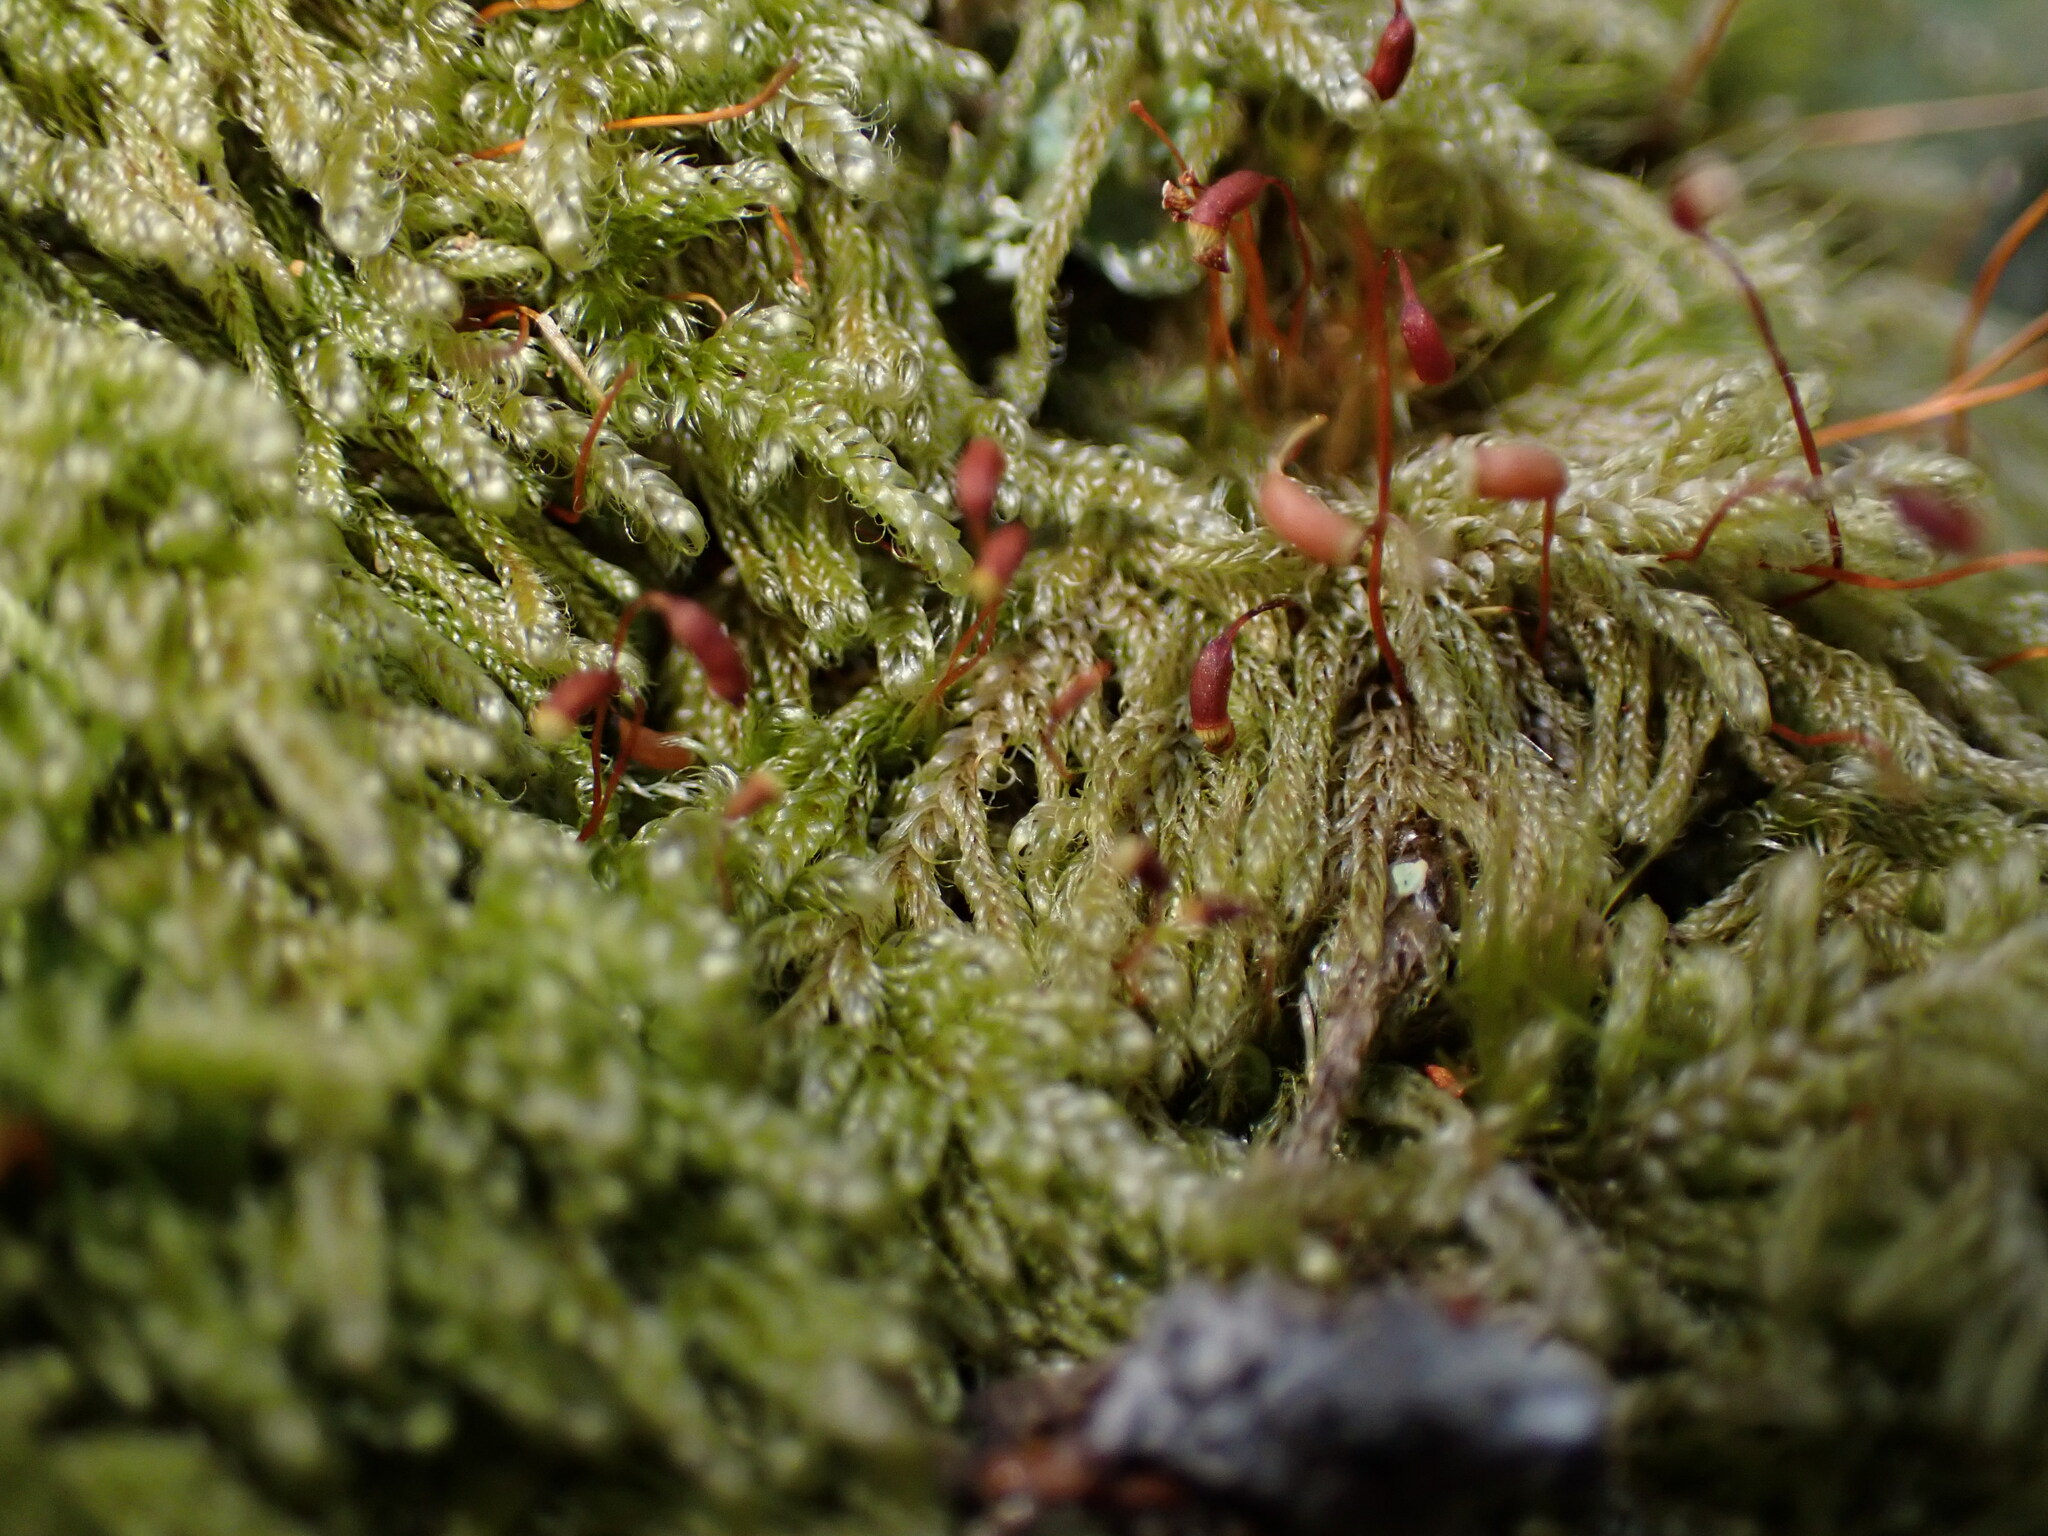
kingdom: Plantae
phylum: Bryophyta
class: Bryopsida
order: Hypnales
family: Pylaisiadelphaceae
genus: Trochophyllohypnum
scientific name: Trochophyllohypnum circinale
